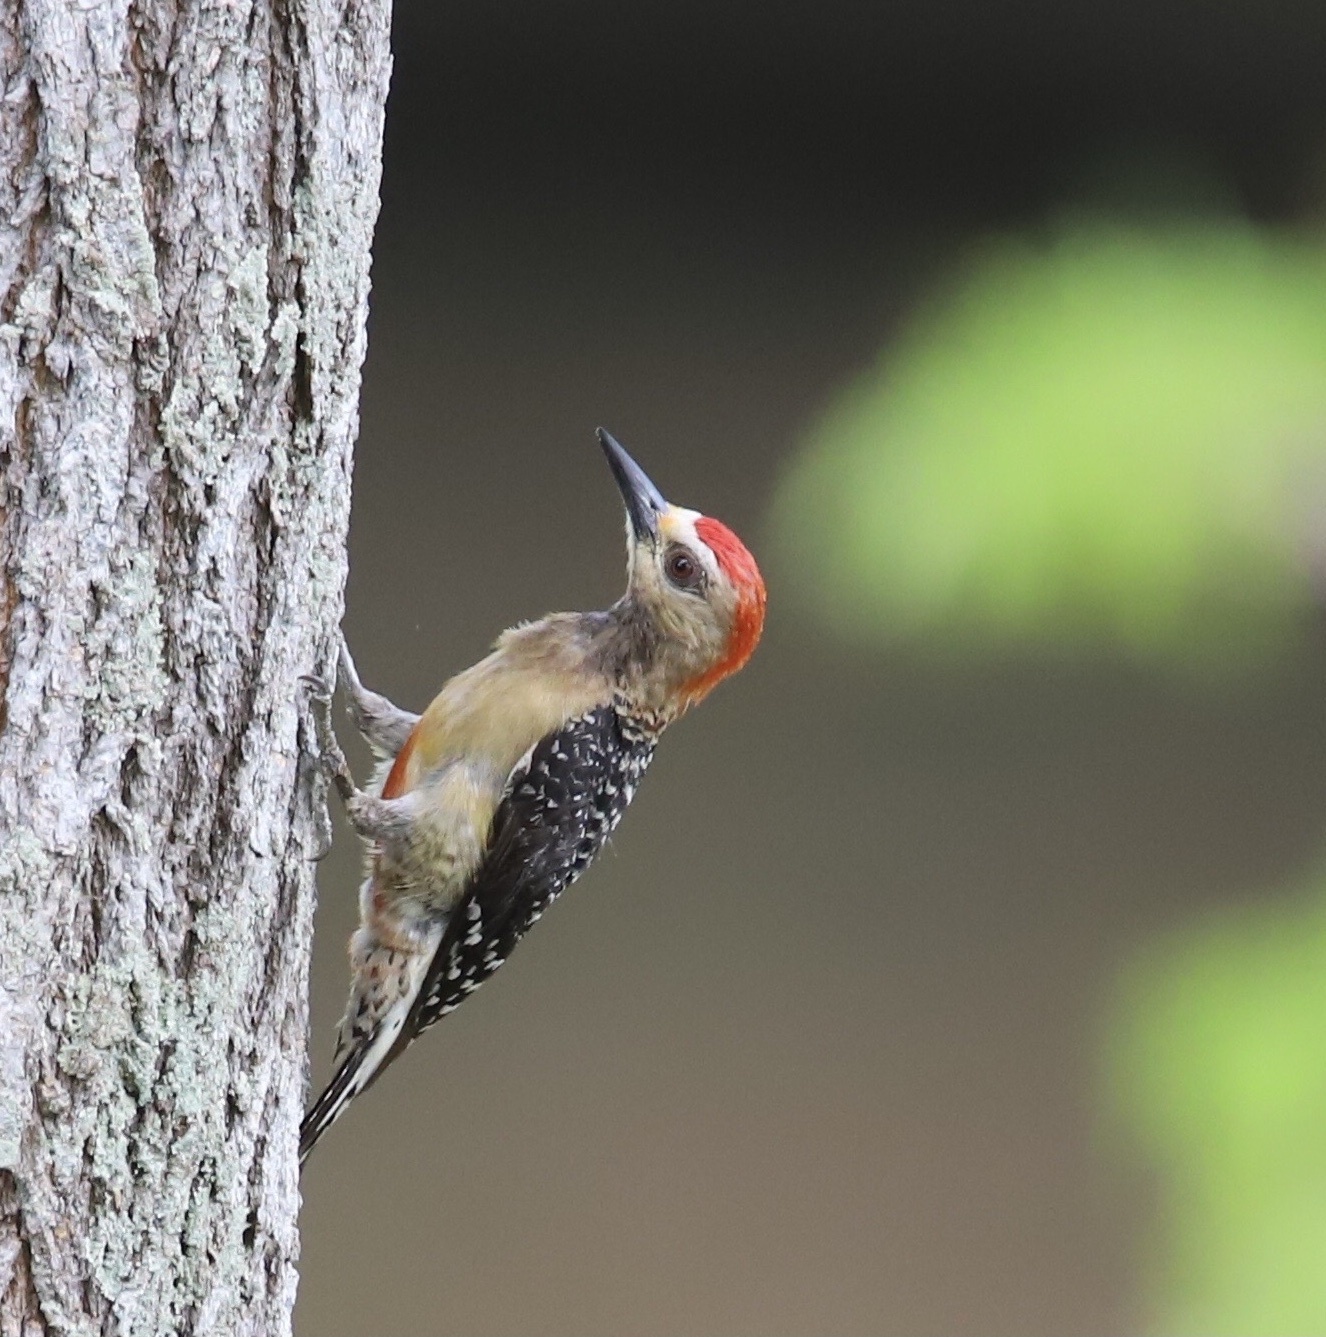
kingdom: Animalia
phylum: Chordata
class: Aves
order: Piciformes
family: Picidae
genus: Melanerpes
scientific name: Melanerpes rubricapillus
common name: Red-crowned woodpecker
